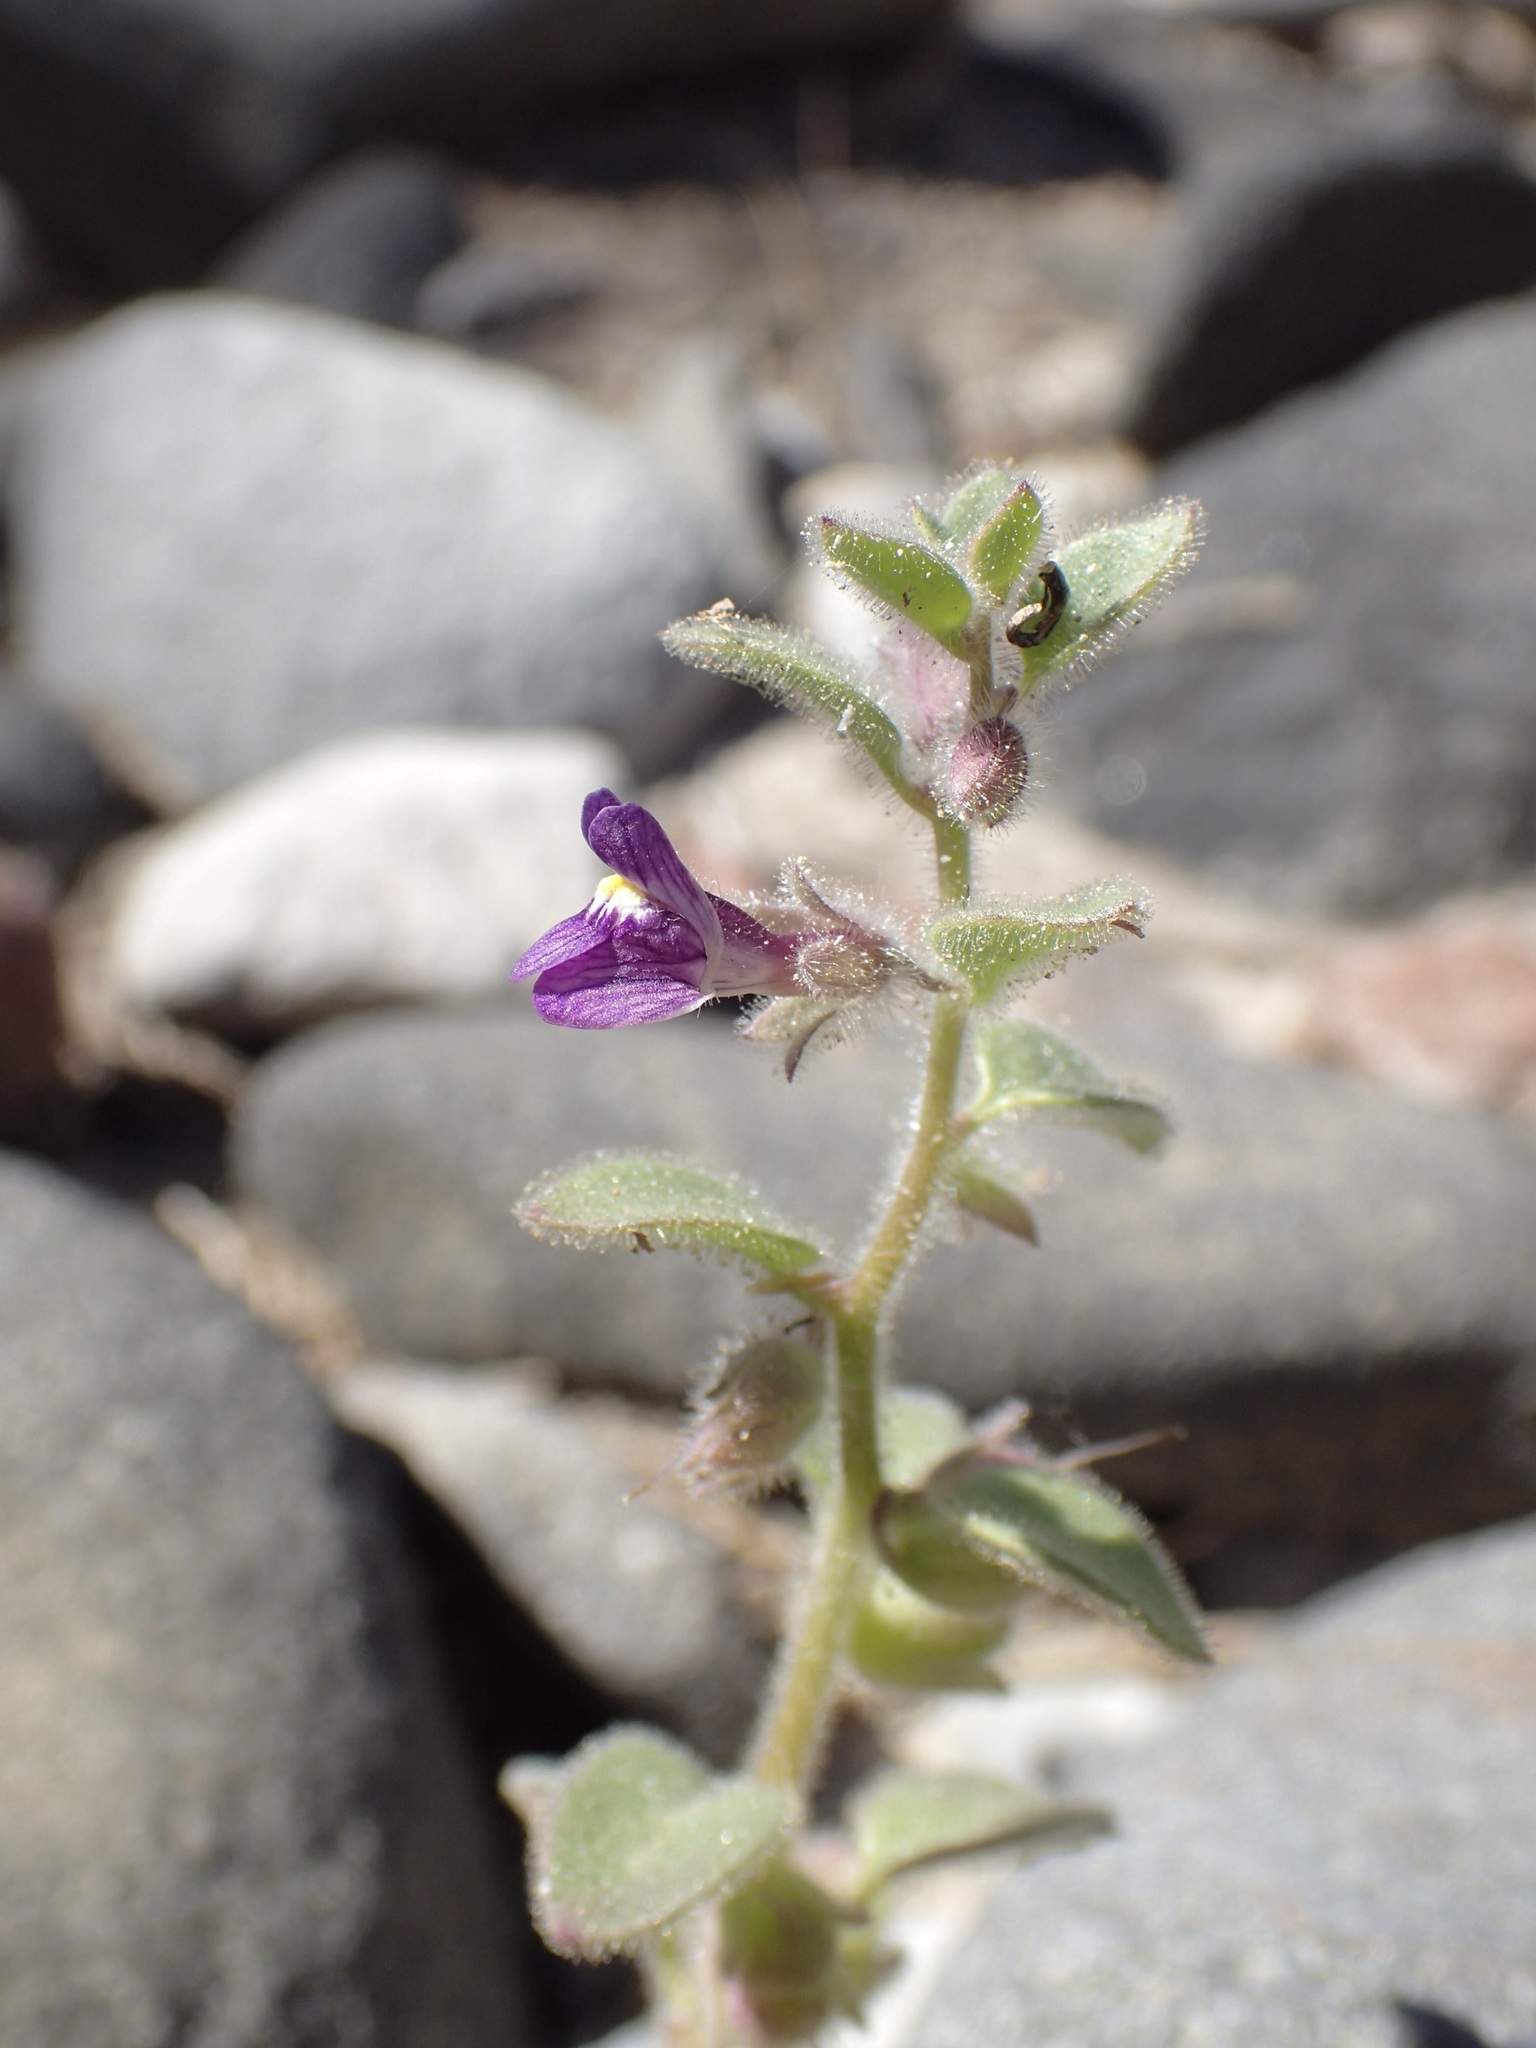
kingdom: Plantae
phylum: Tracheophyta
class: Magnoliopsida
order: Lamiales
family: Plantaginaceae
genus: Pseudorontium
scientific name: Pseudorontium cyathiferum
